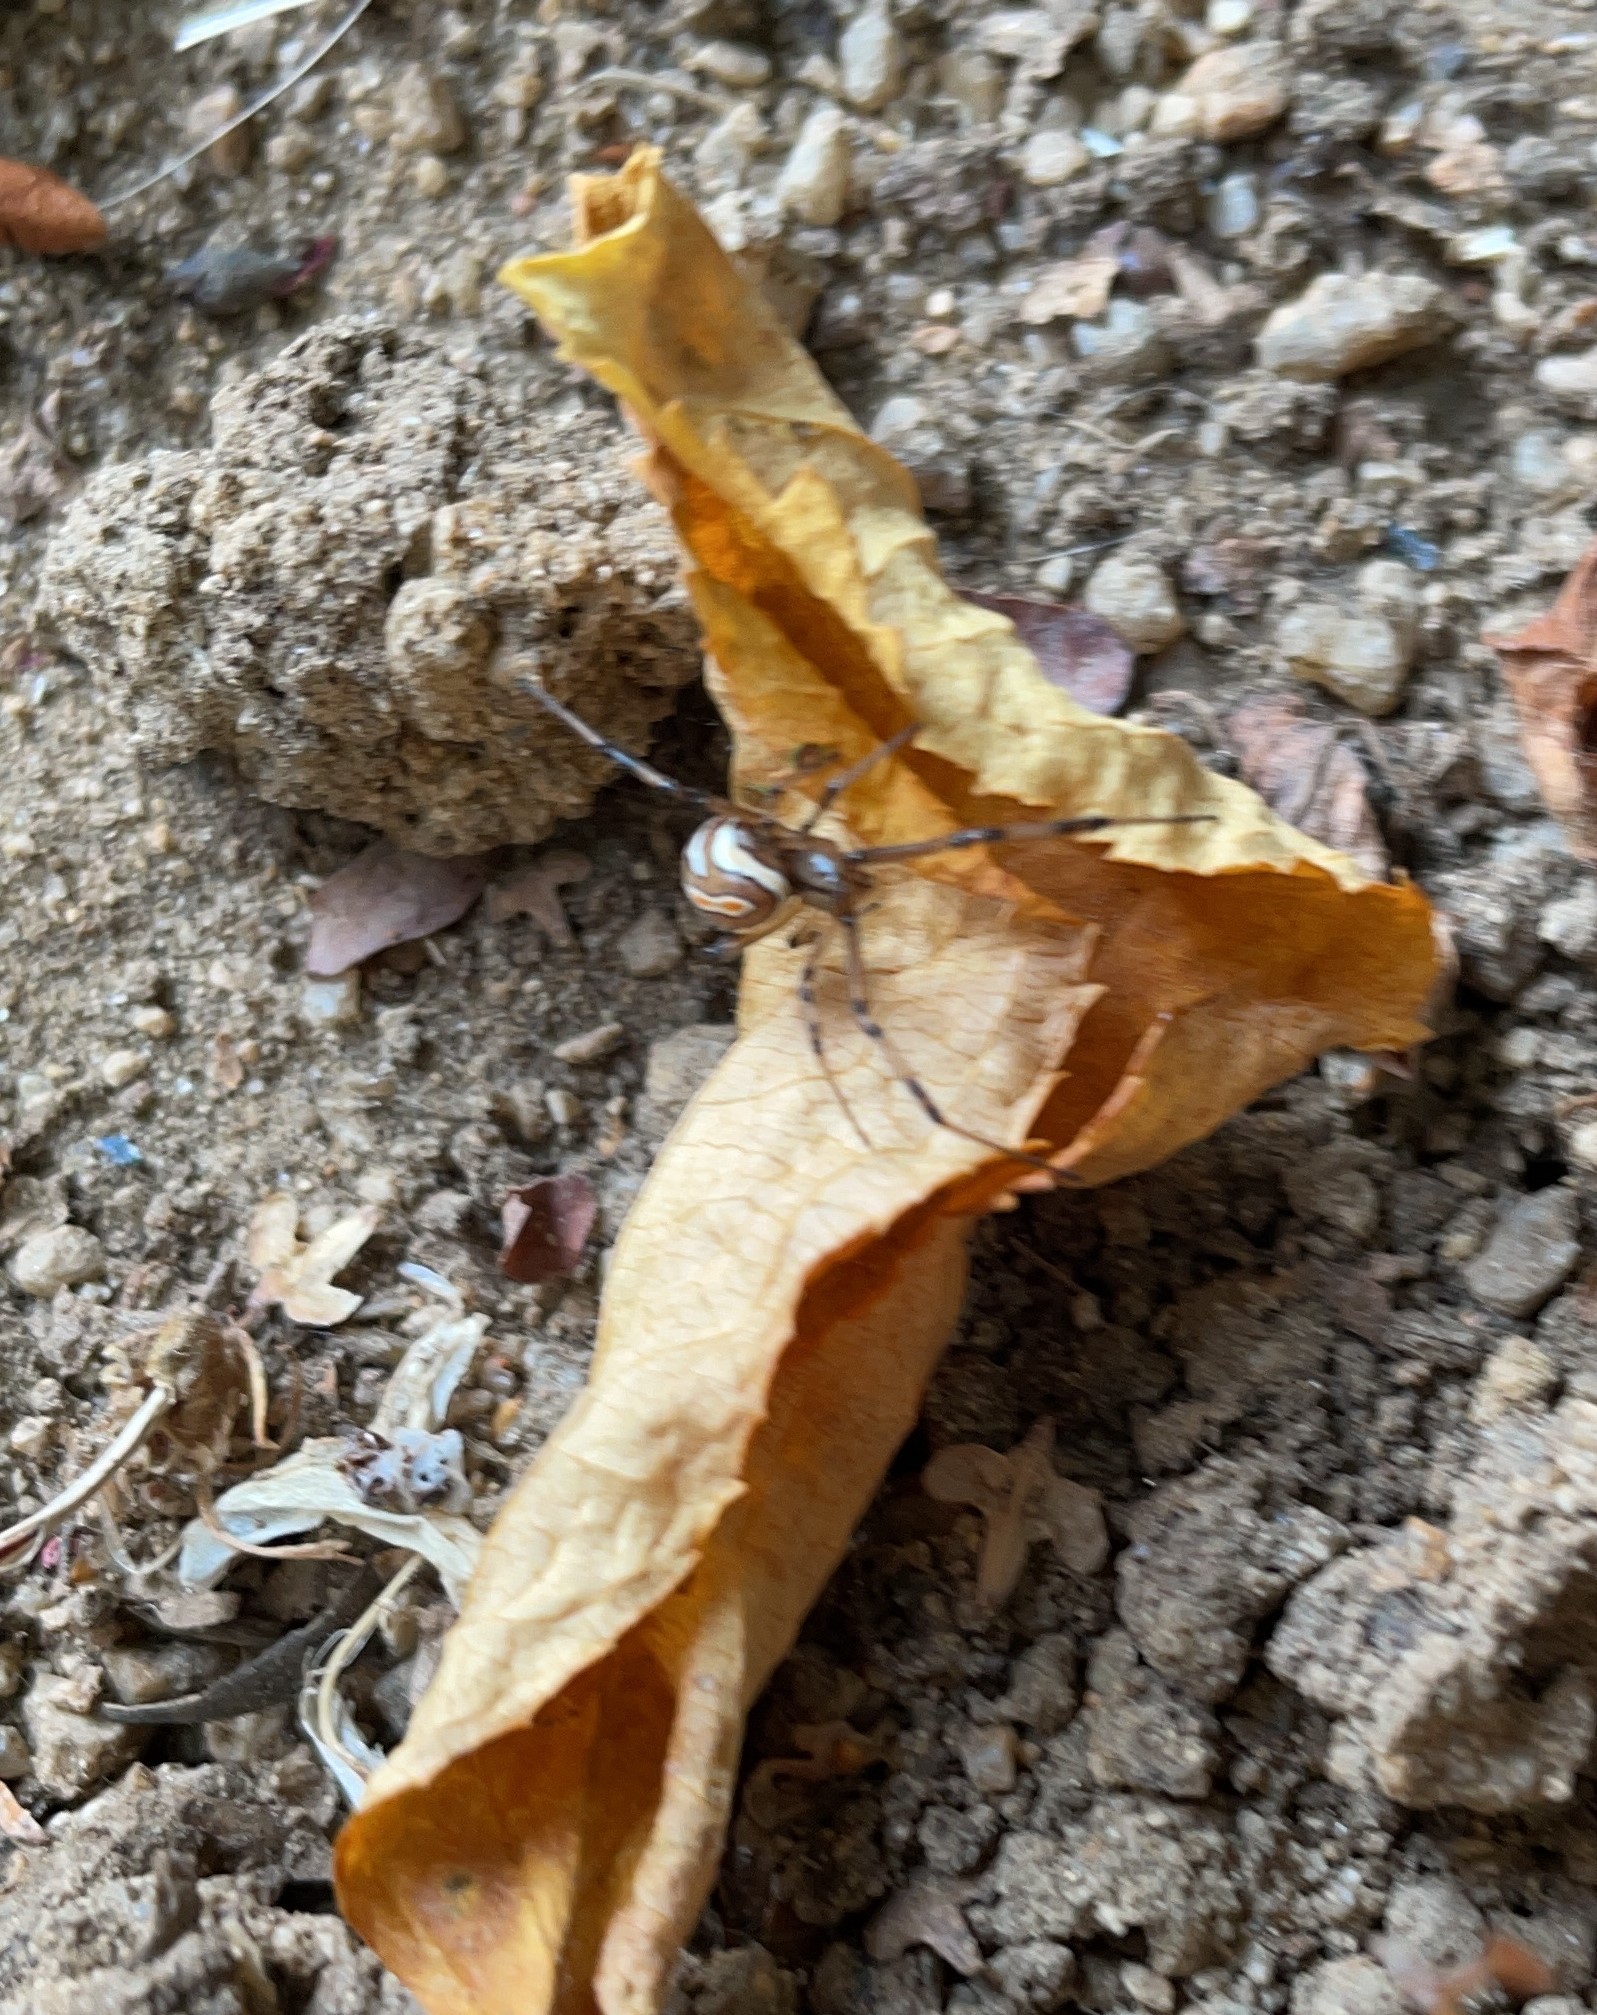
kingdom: Animalia
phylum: Arthropoda
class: Arachnida
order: Araneae
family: Theridiidae
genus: Latrodectus
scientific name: Latrodectus hesperus
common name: Western black widow
